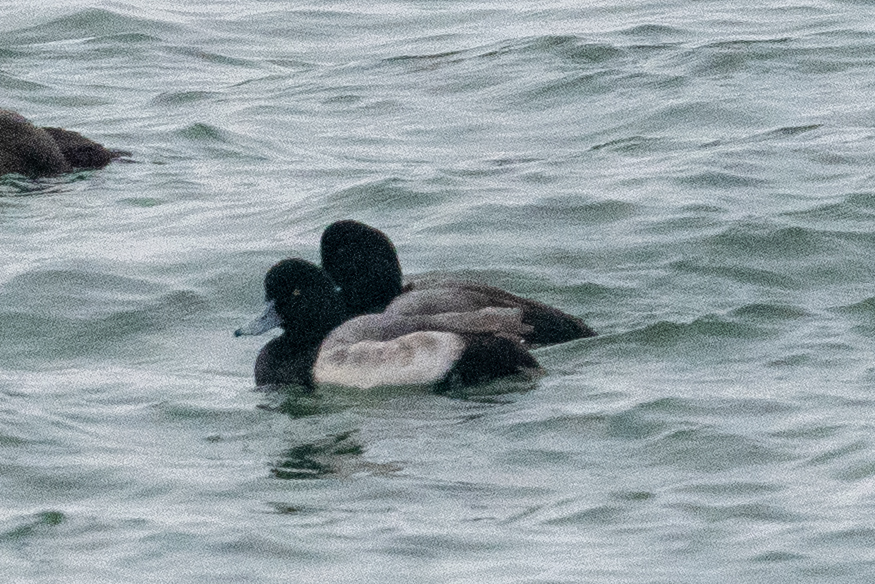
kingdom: Animalia
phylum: Chordata
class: Aves
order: Anseriformes
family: Anatidae
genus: Aythya
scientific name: Aythya marila
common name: Greater scaup
